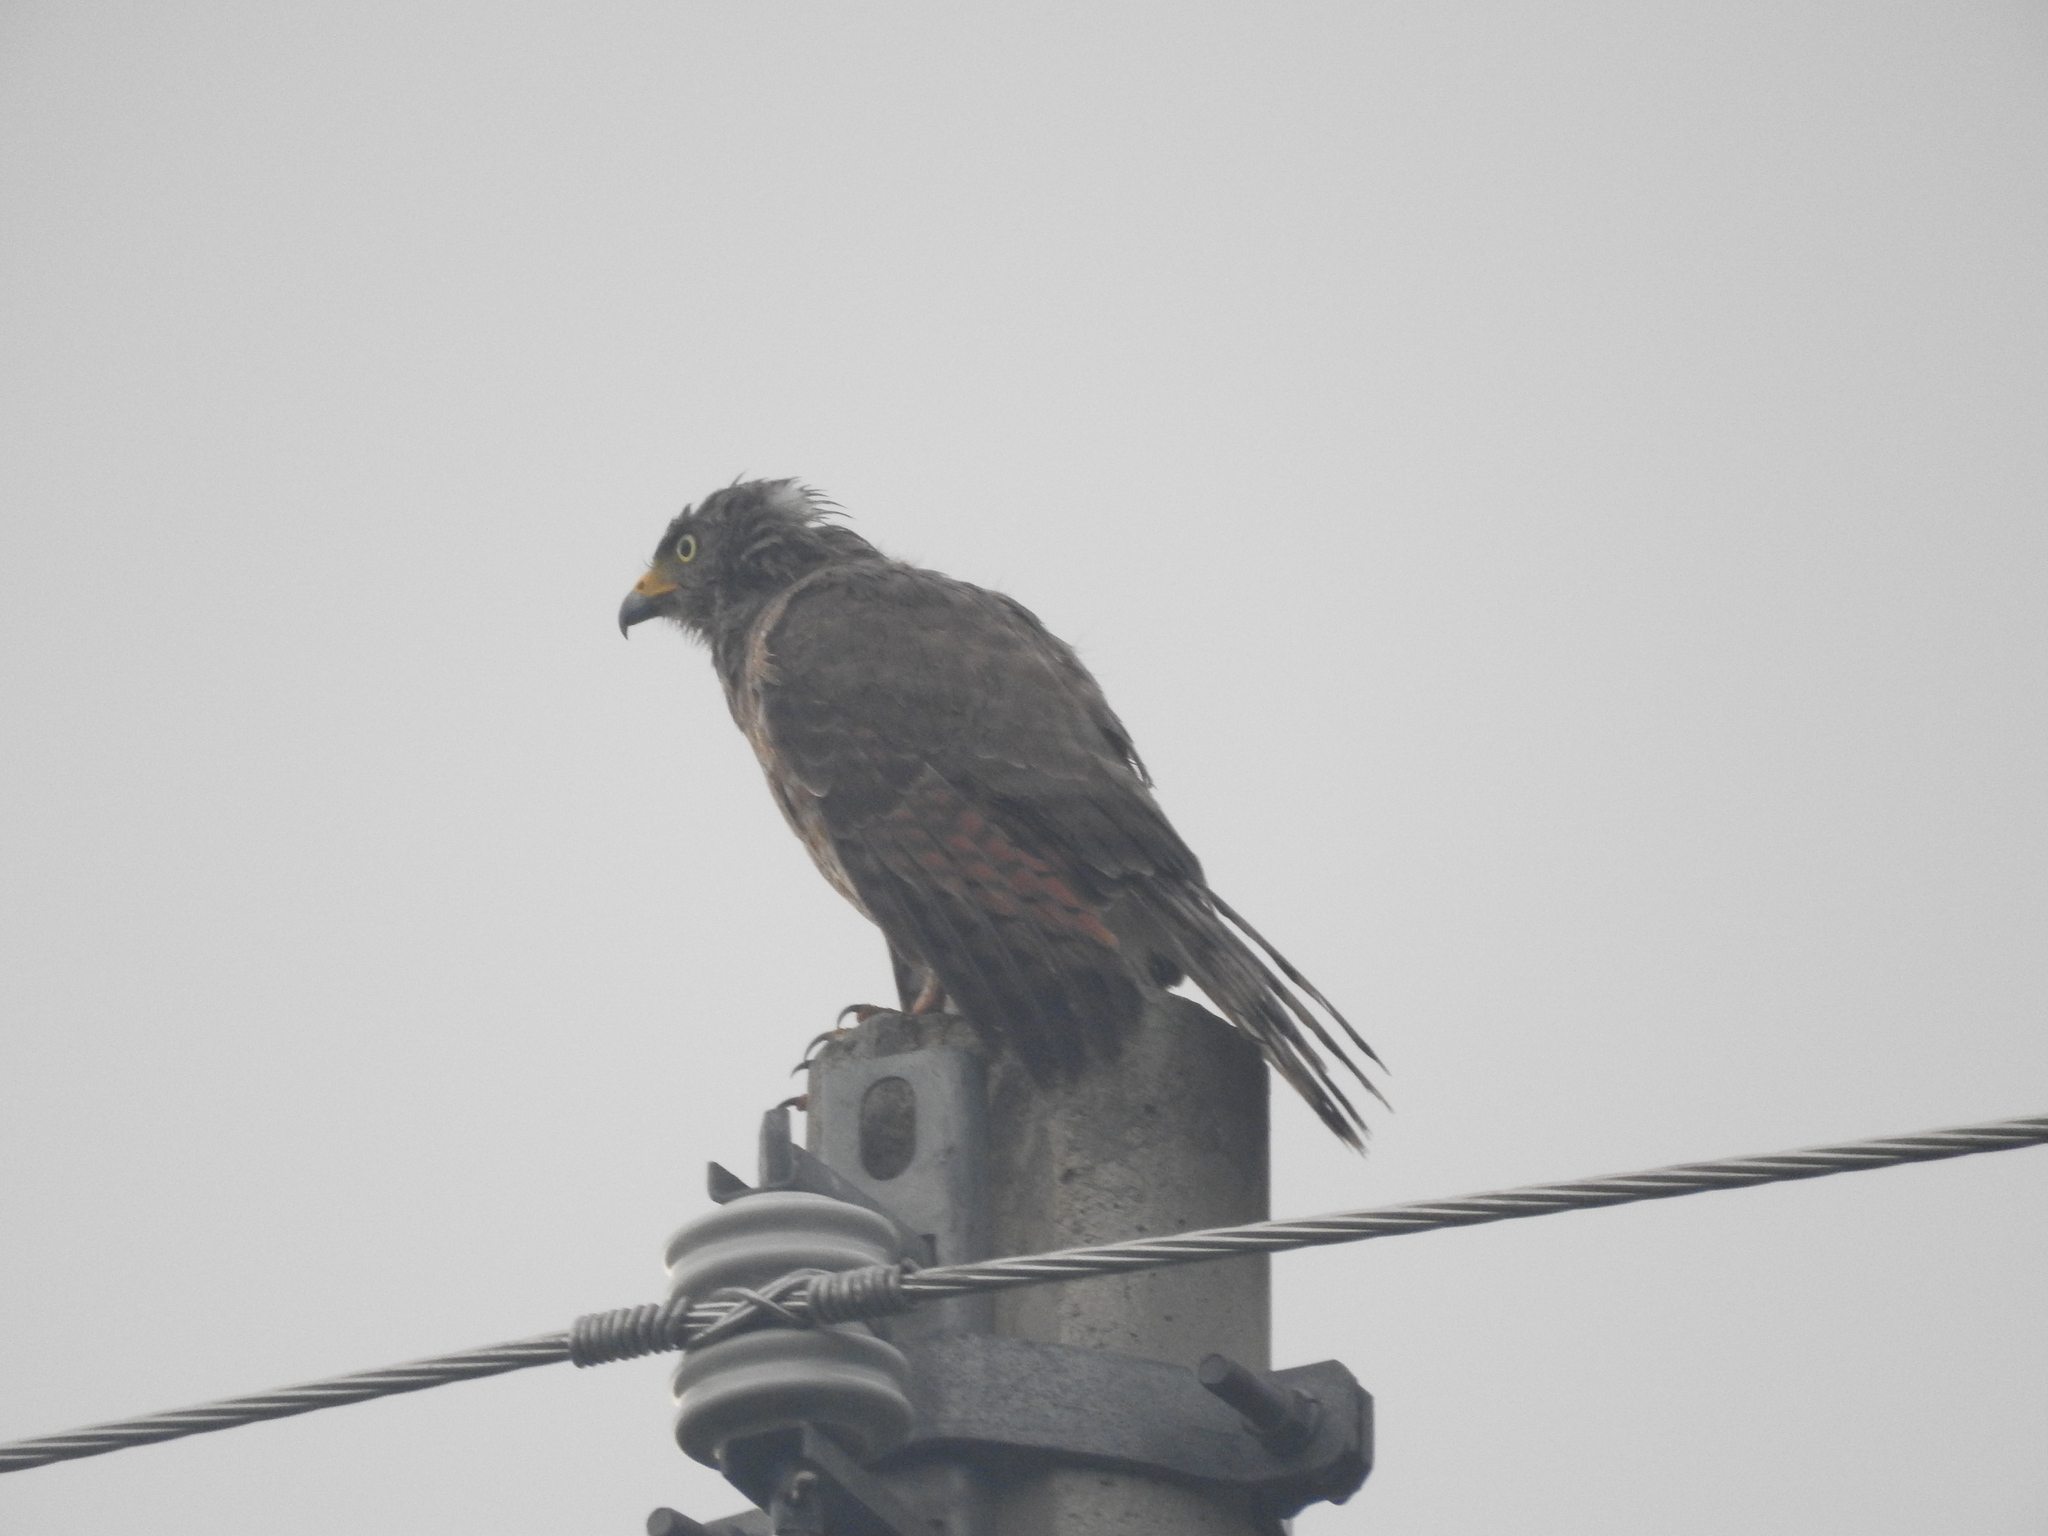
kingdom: Animalia
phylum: Chordata
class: Aves
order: Accipitriformes
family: Accipitridae
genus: Rupornis
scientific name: Rupornis magnirostris
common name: Roadside hawk
